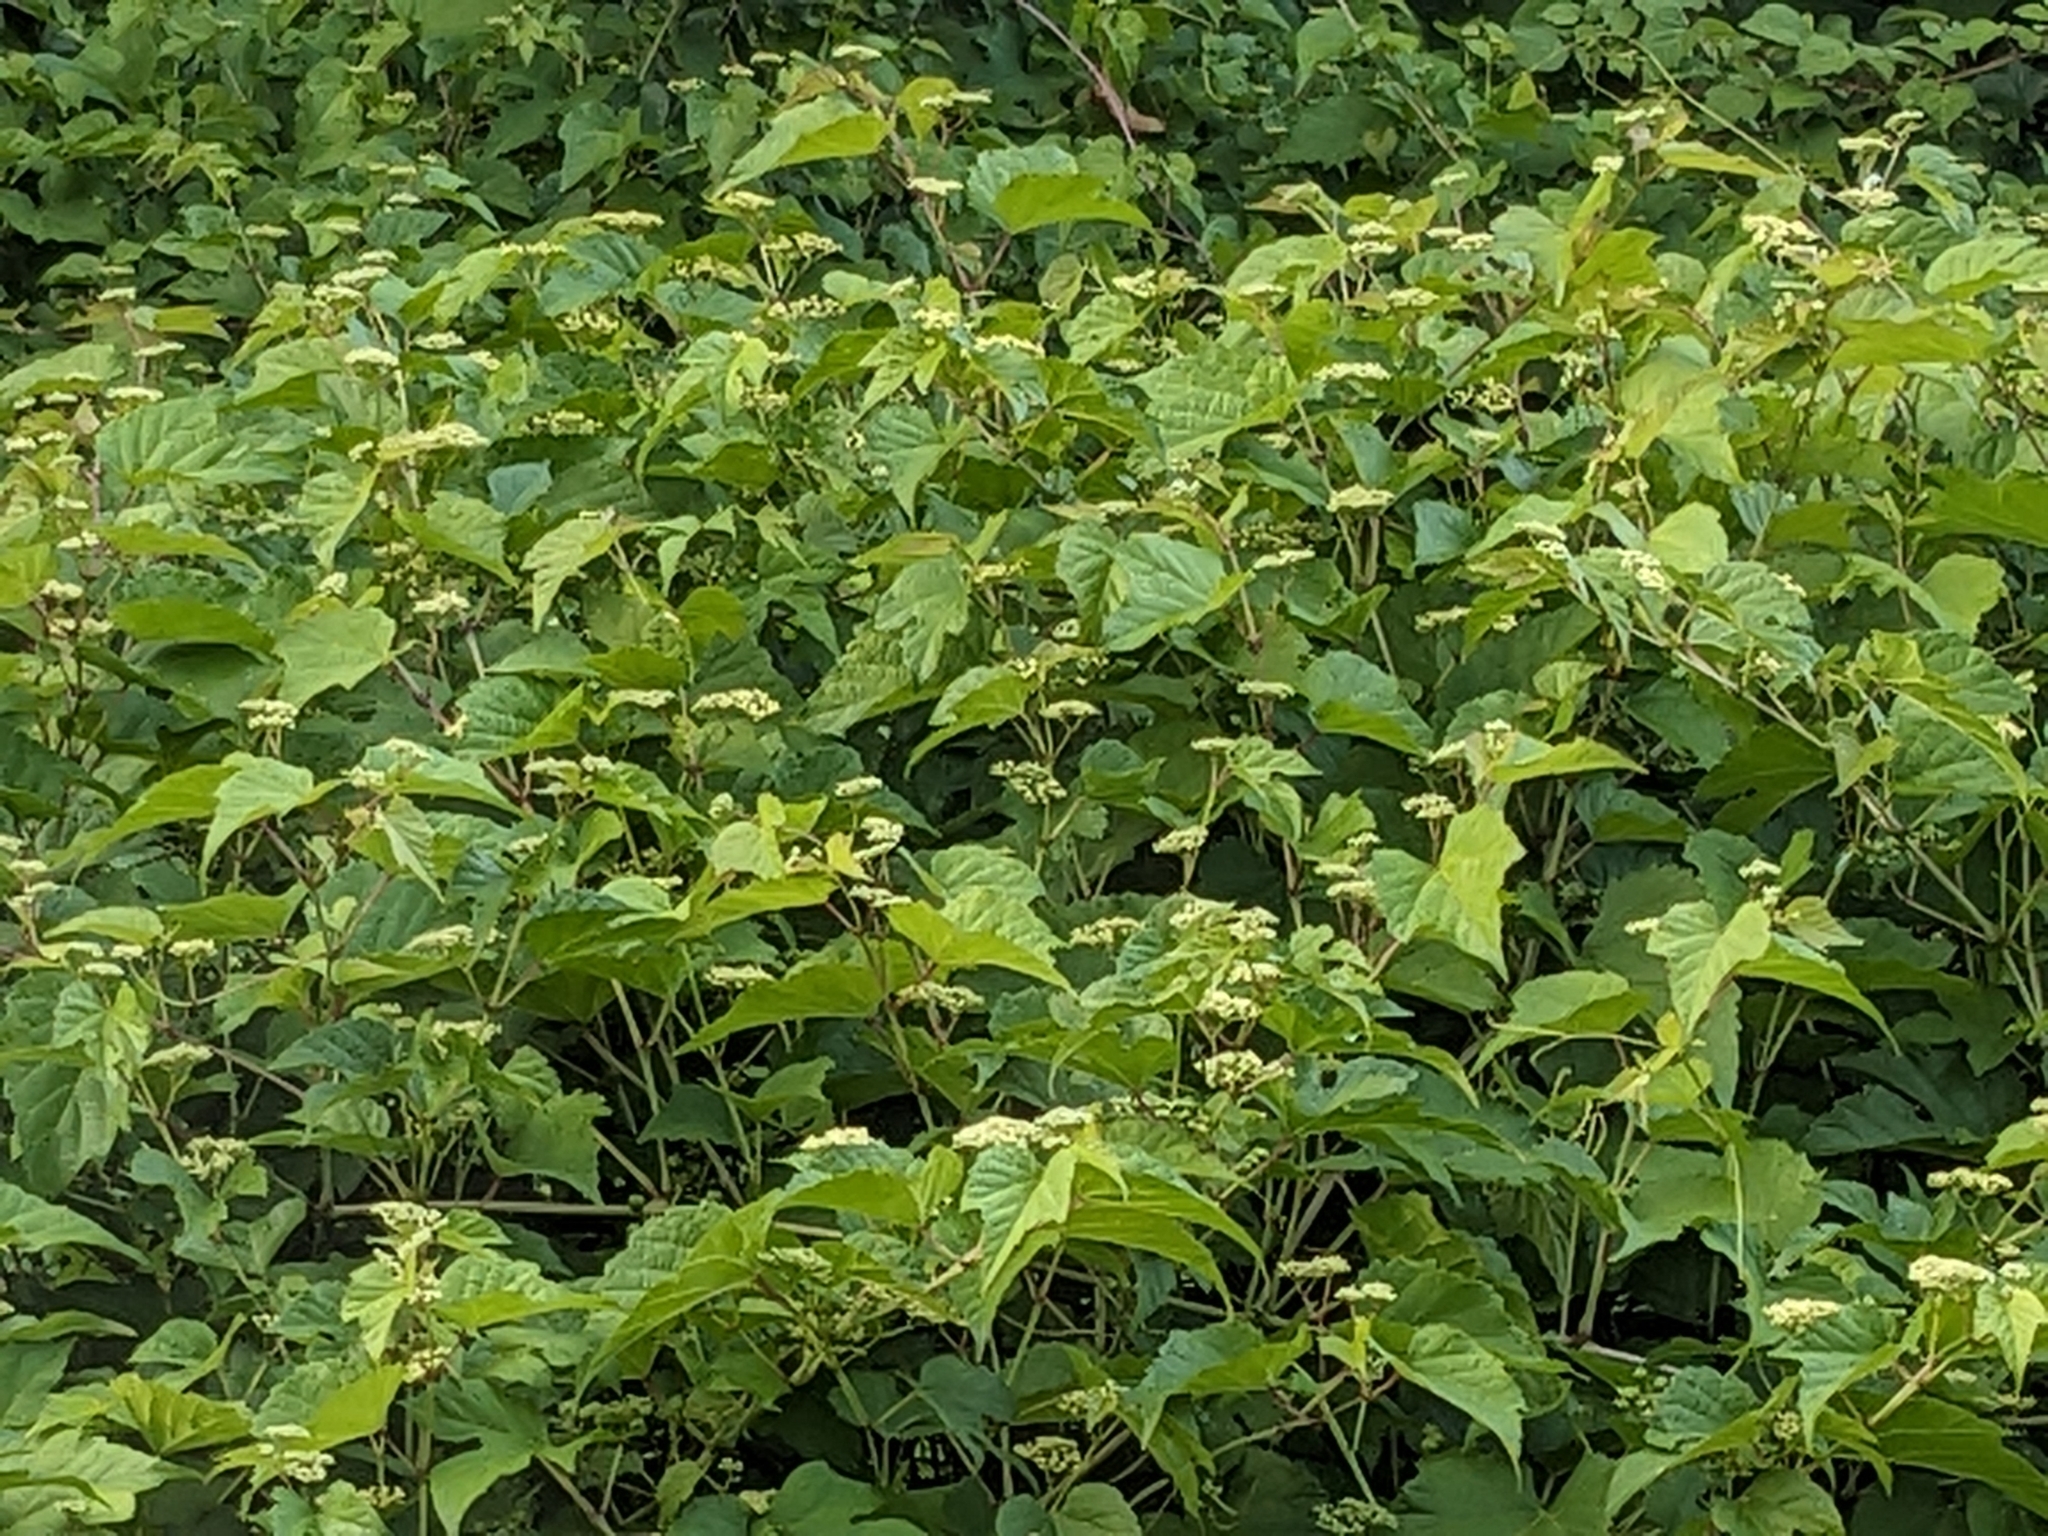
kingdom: Plantae
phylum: Tracheophyta
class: Magnoliopsida
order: Vitales
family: Vitaceae
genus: Ampelopsis
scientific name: Ampelopsis glandulosa
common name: Amur peppervine
